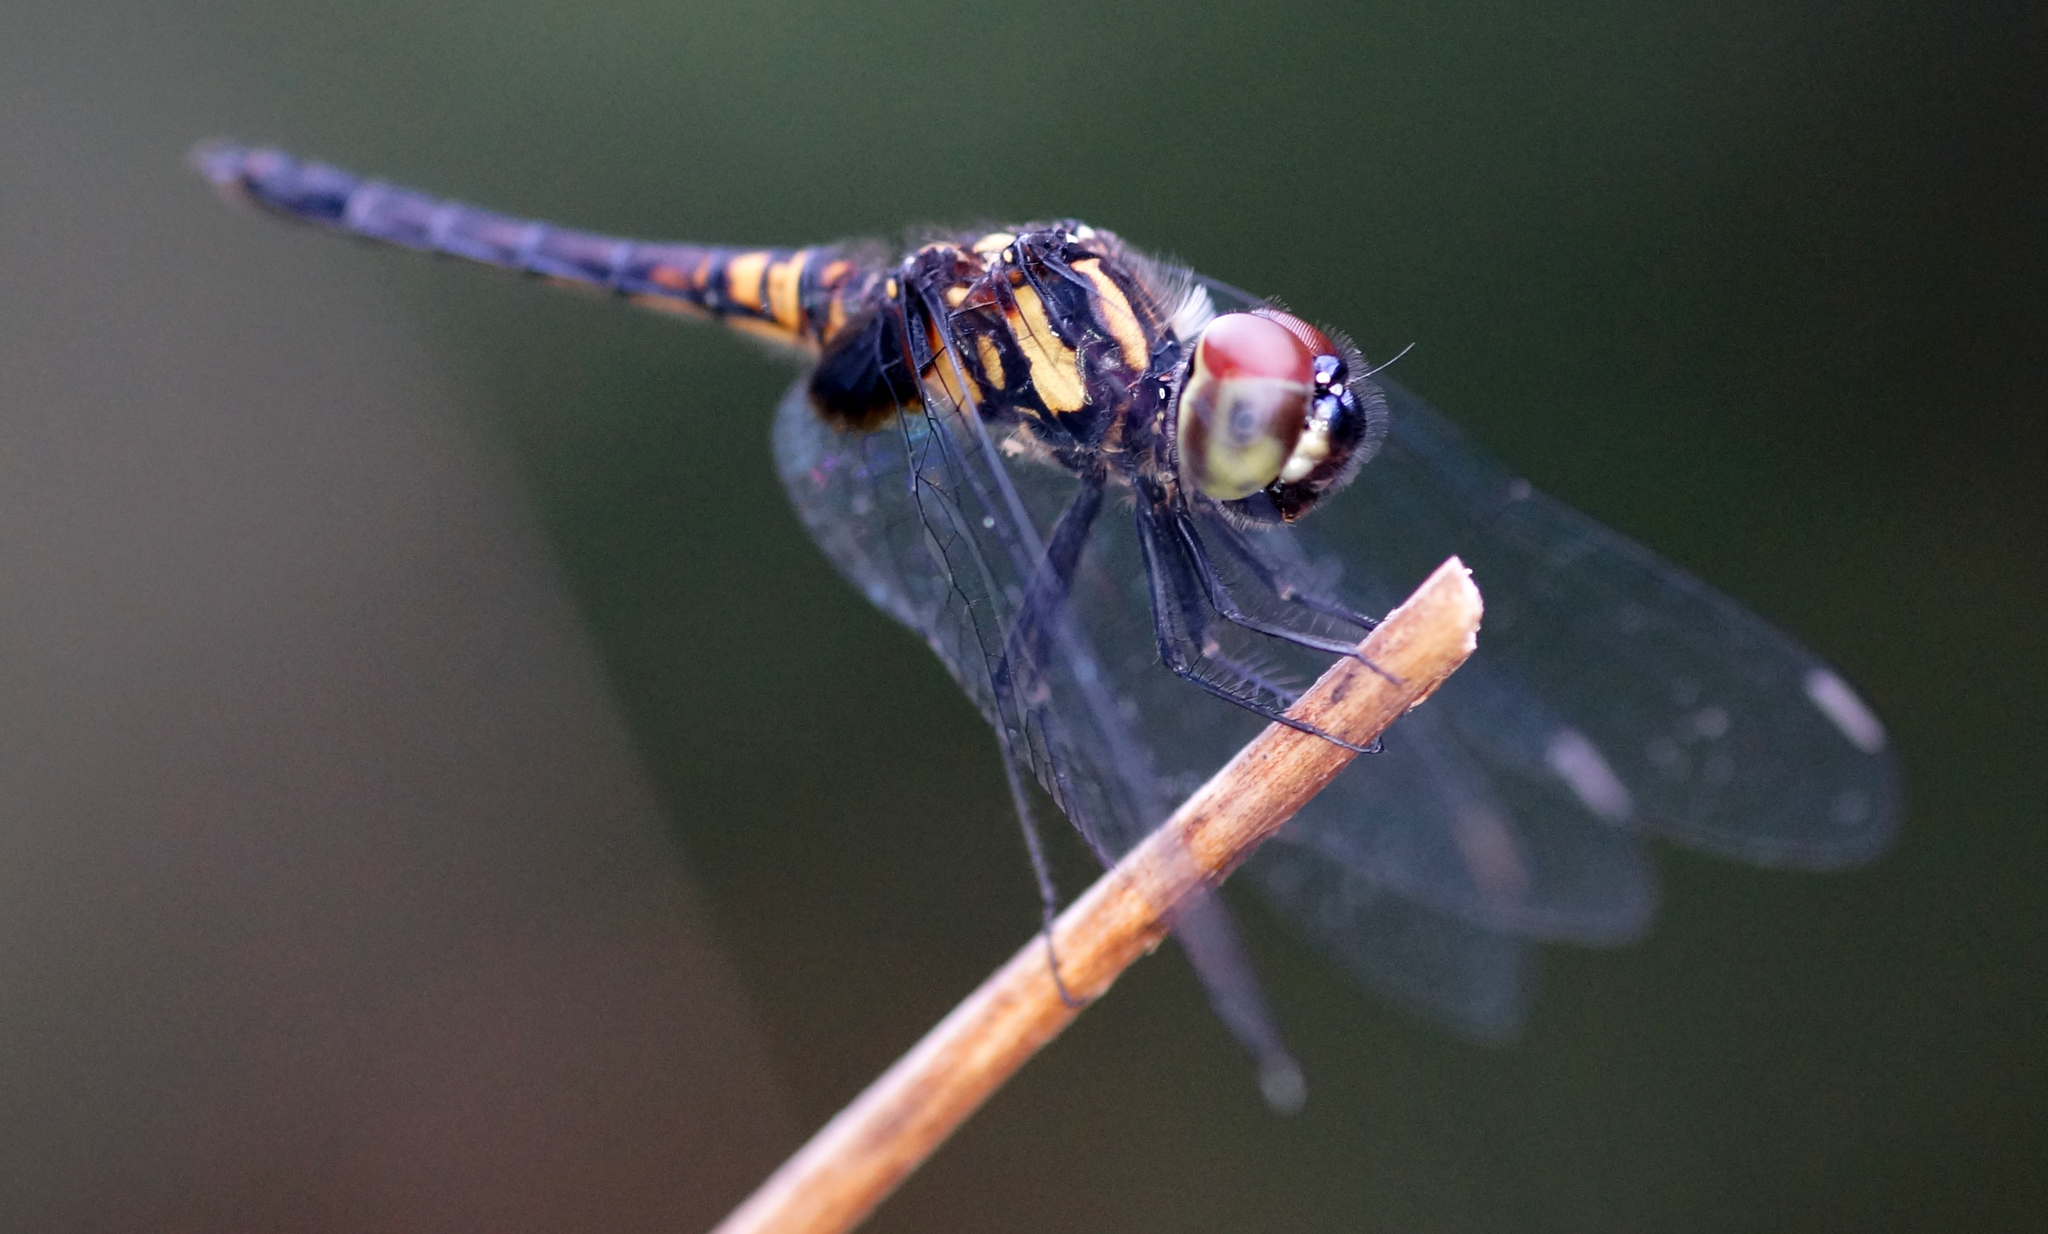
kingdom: Animalia
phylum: Arthropoda
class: Insecta
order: Odonata
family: Libellulidae
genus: Aethriamanta
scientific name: Aethriamanta aethra
